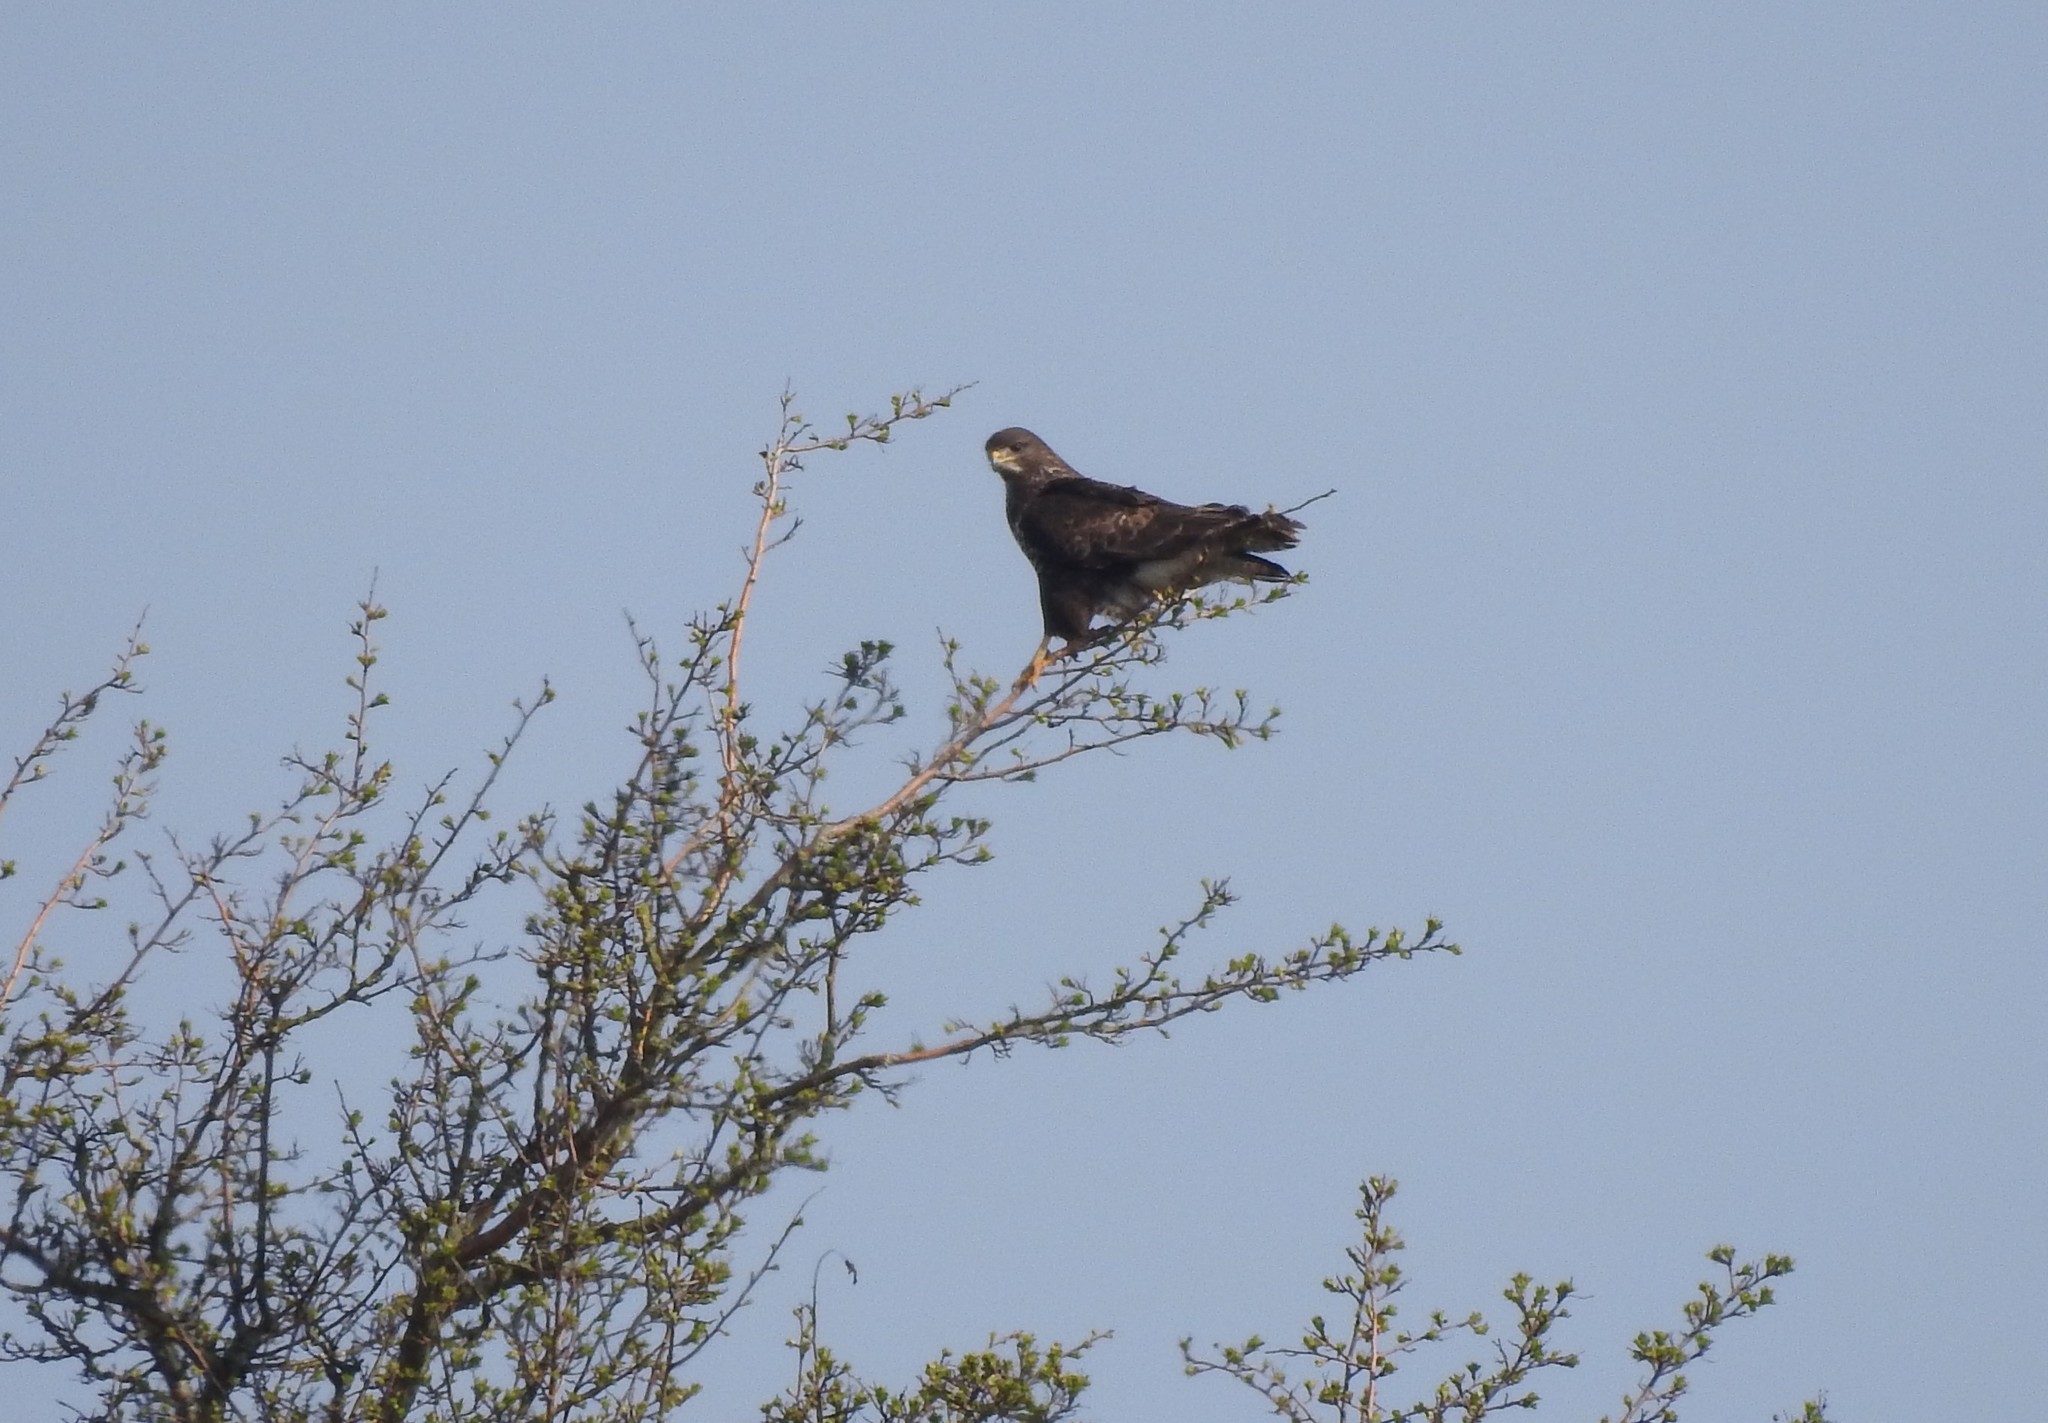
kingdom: Animalia
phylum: Chordata
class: Aves
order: Accipitriformes
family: Accipitridae
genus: Buteo
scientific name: Buteo buteo
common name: Common buzzard
